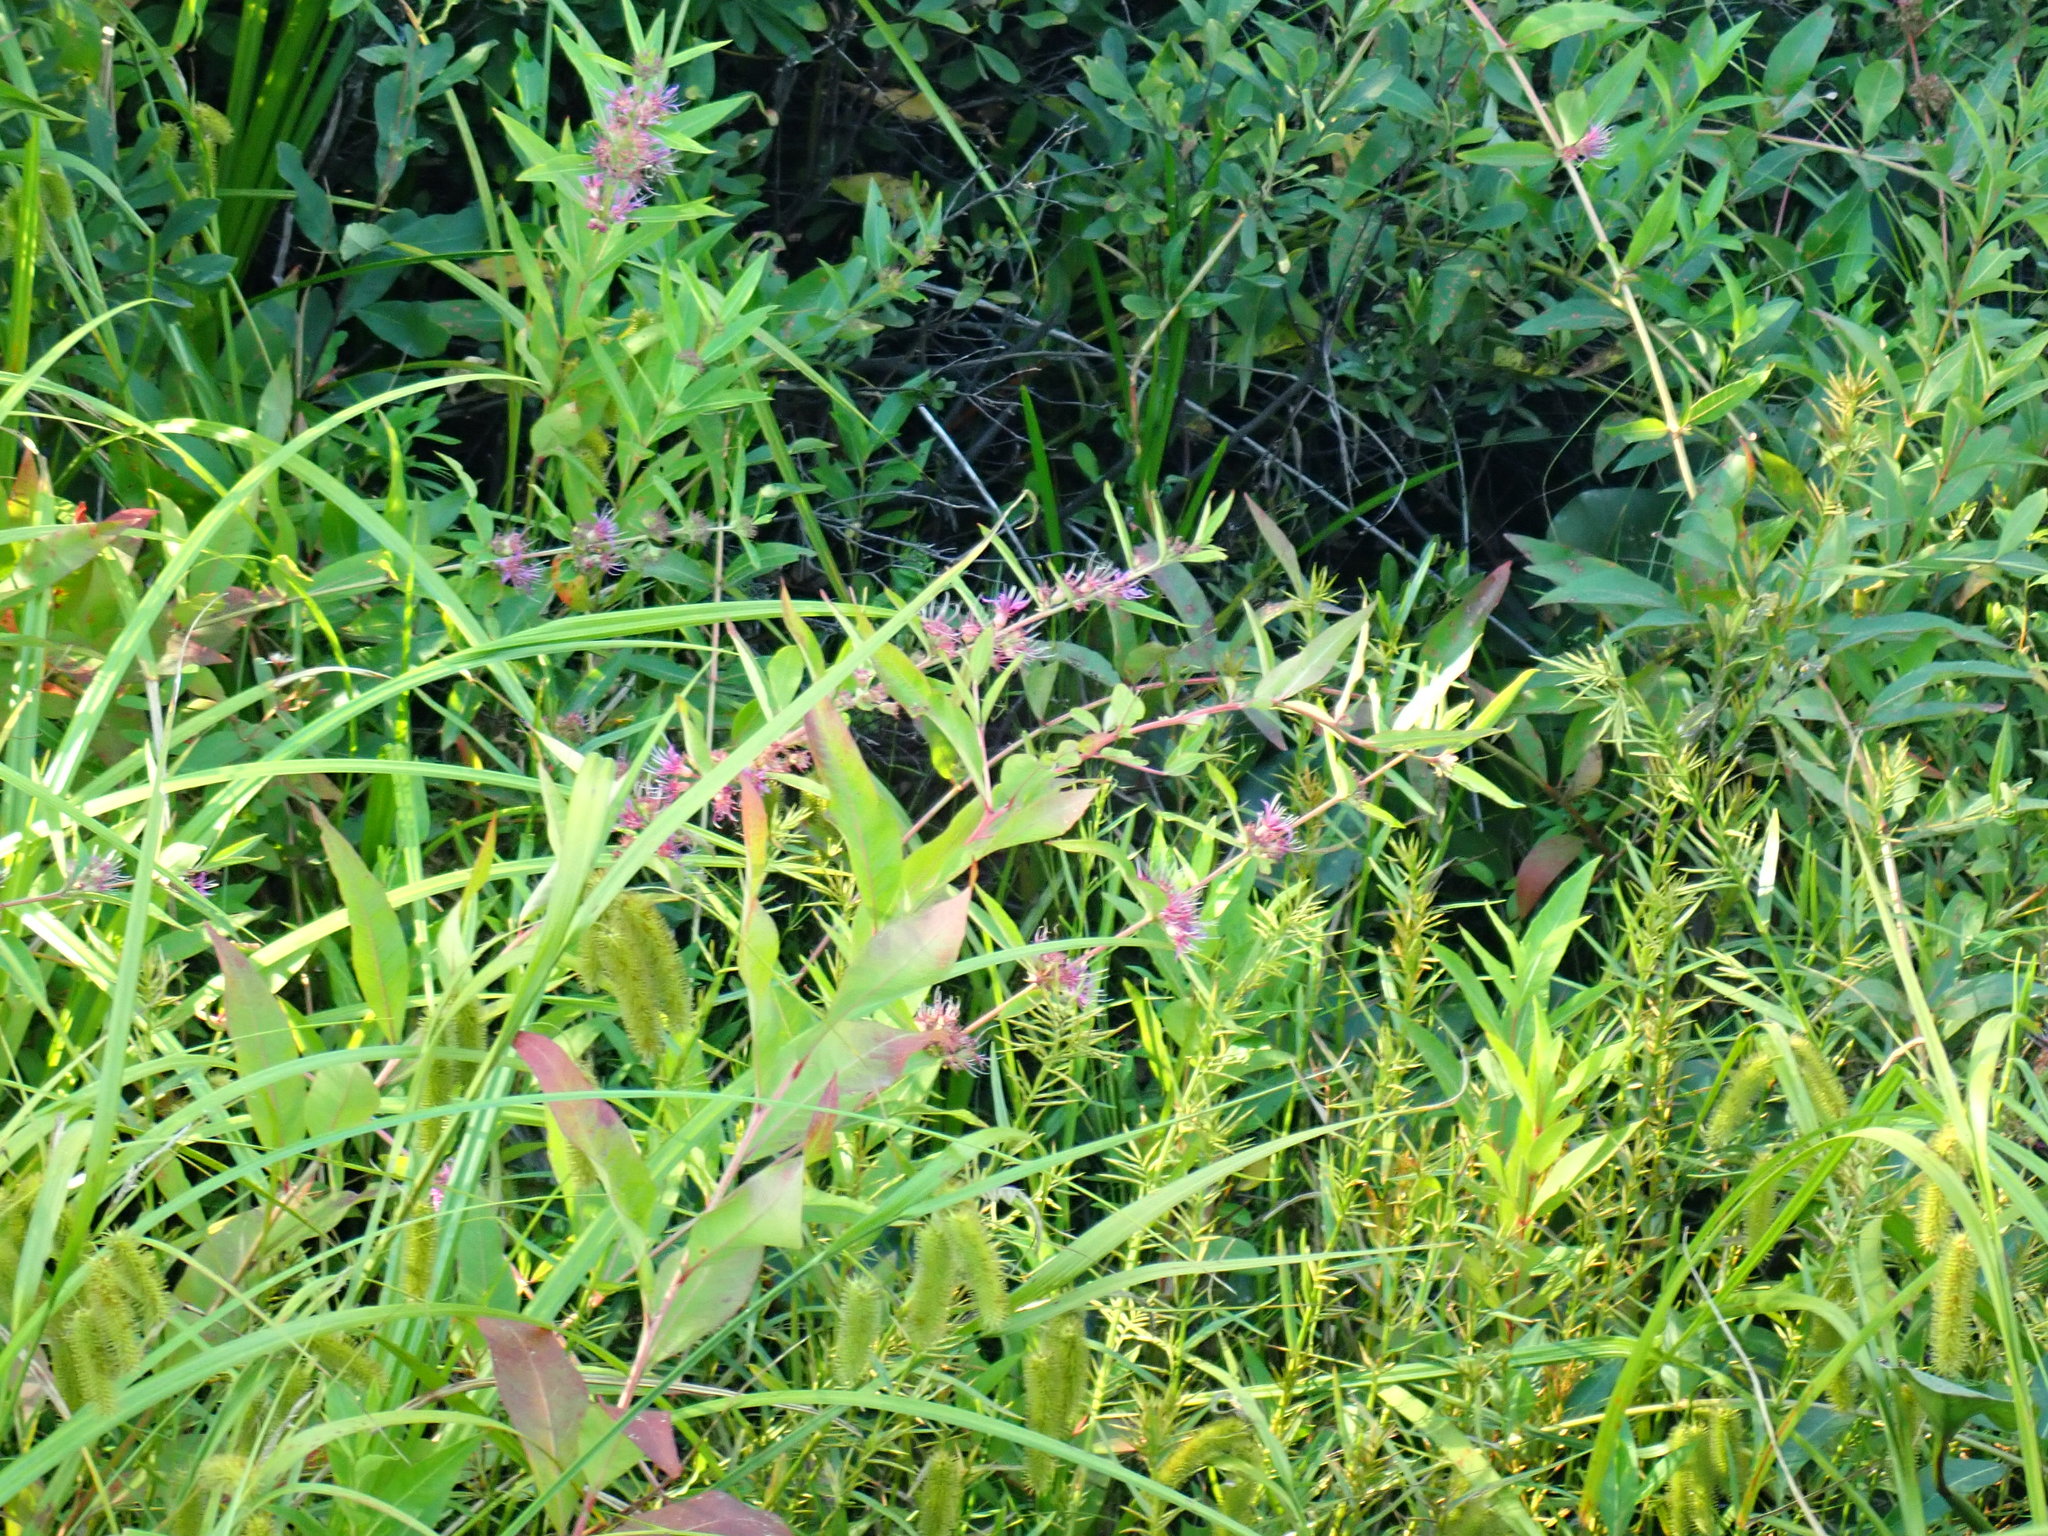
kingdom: Plantae
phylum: Tracheophyta
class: Magnoliopsida
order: Myrtales
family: Lythraceae
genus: Decodon
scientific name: Decodon verticillatus
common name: Hairy swamp loosestrife
